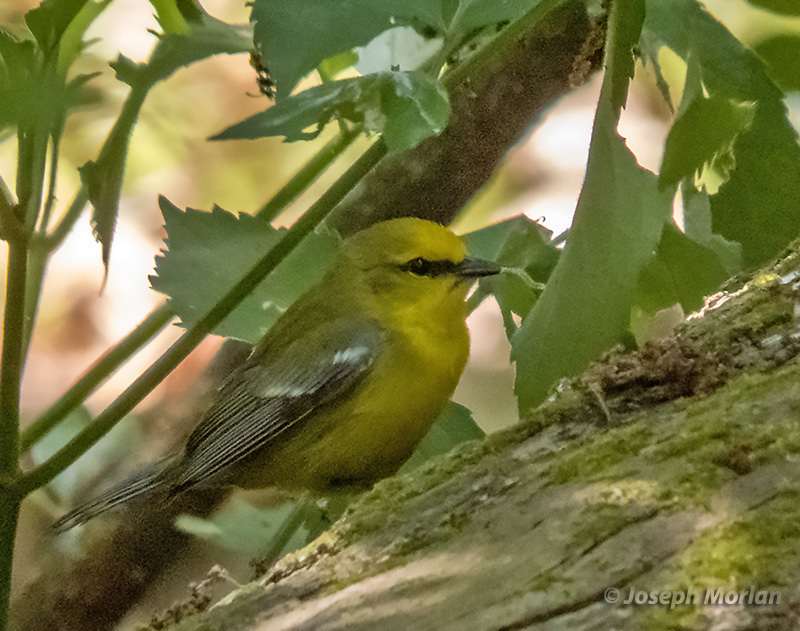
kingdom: Animalia
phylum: Chordata
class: Aves
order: Passeriformes
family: Parulidae
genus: Vermivora
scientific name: Vermivora cyanoptera
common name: Blue-winged warbler
